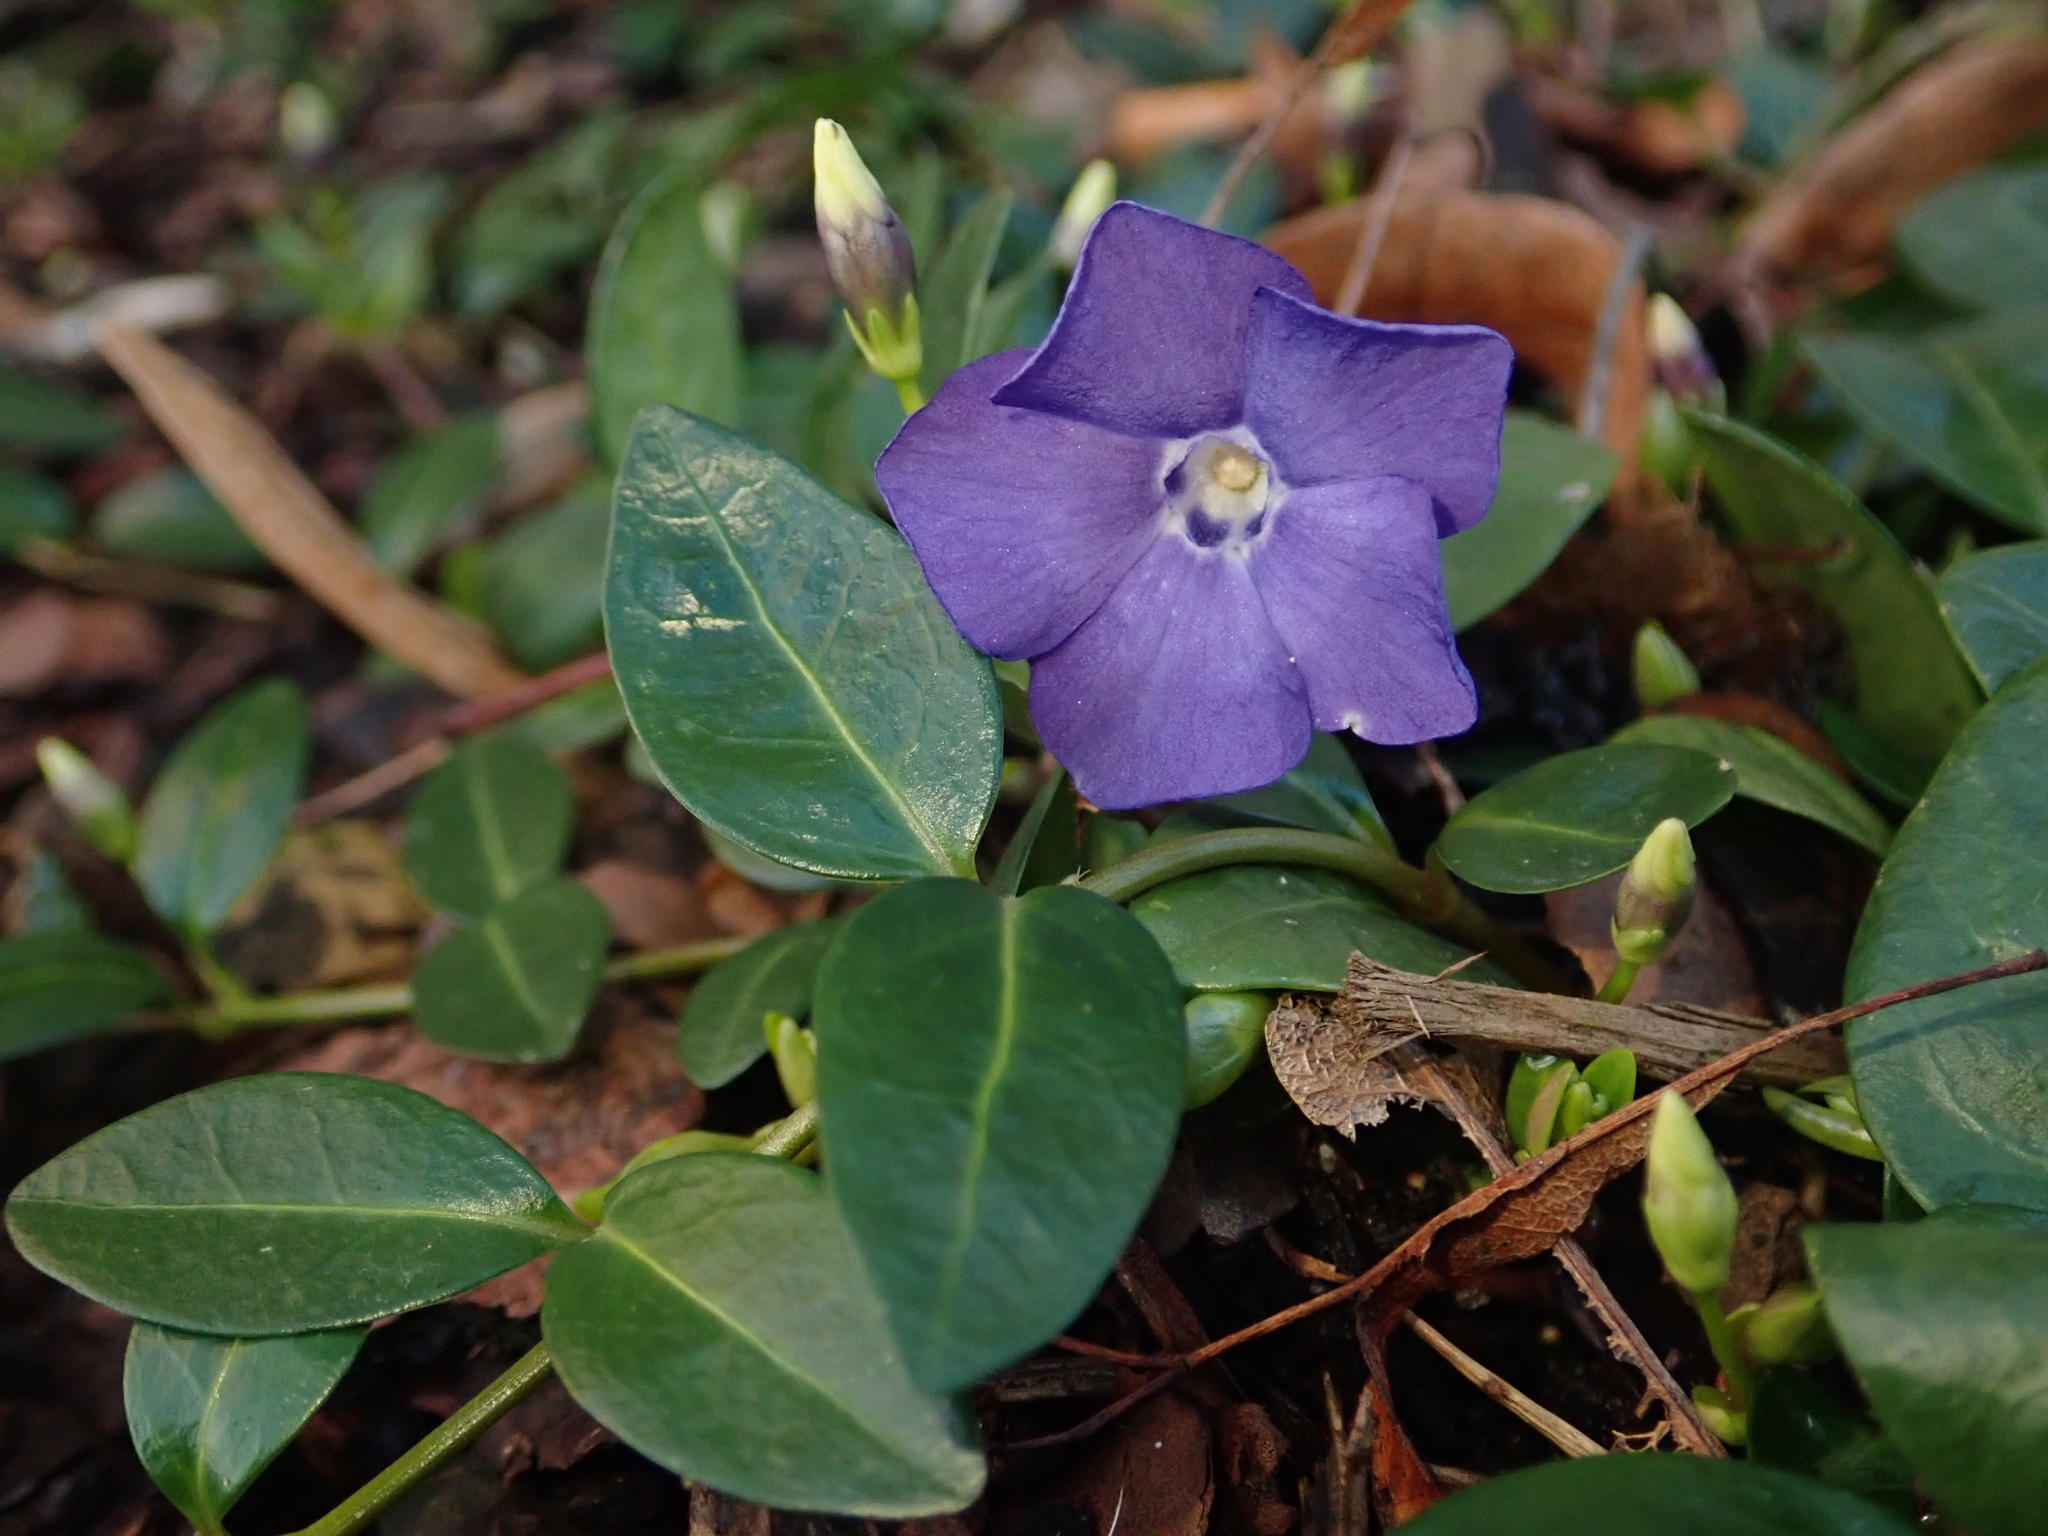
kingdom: Plantae
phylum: Tracheophyta
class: Magnoliopsida
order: Gentianales
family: Apocynaceae
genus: Vinca
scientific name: Vinca minor
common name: Lesser periwinkle
